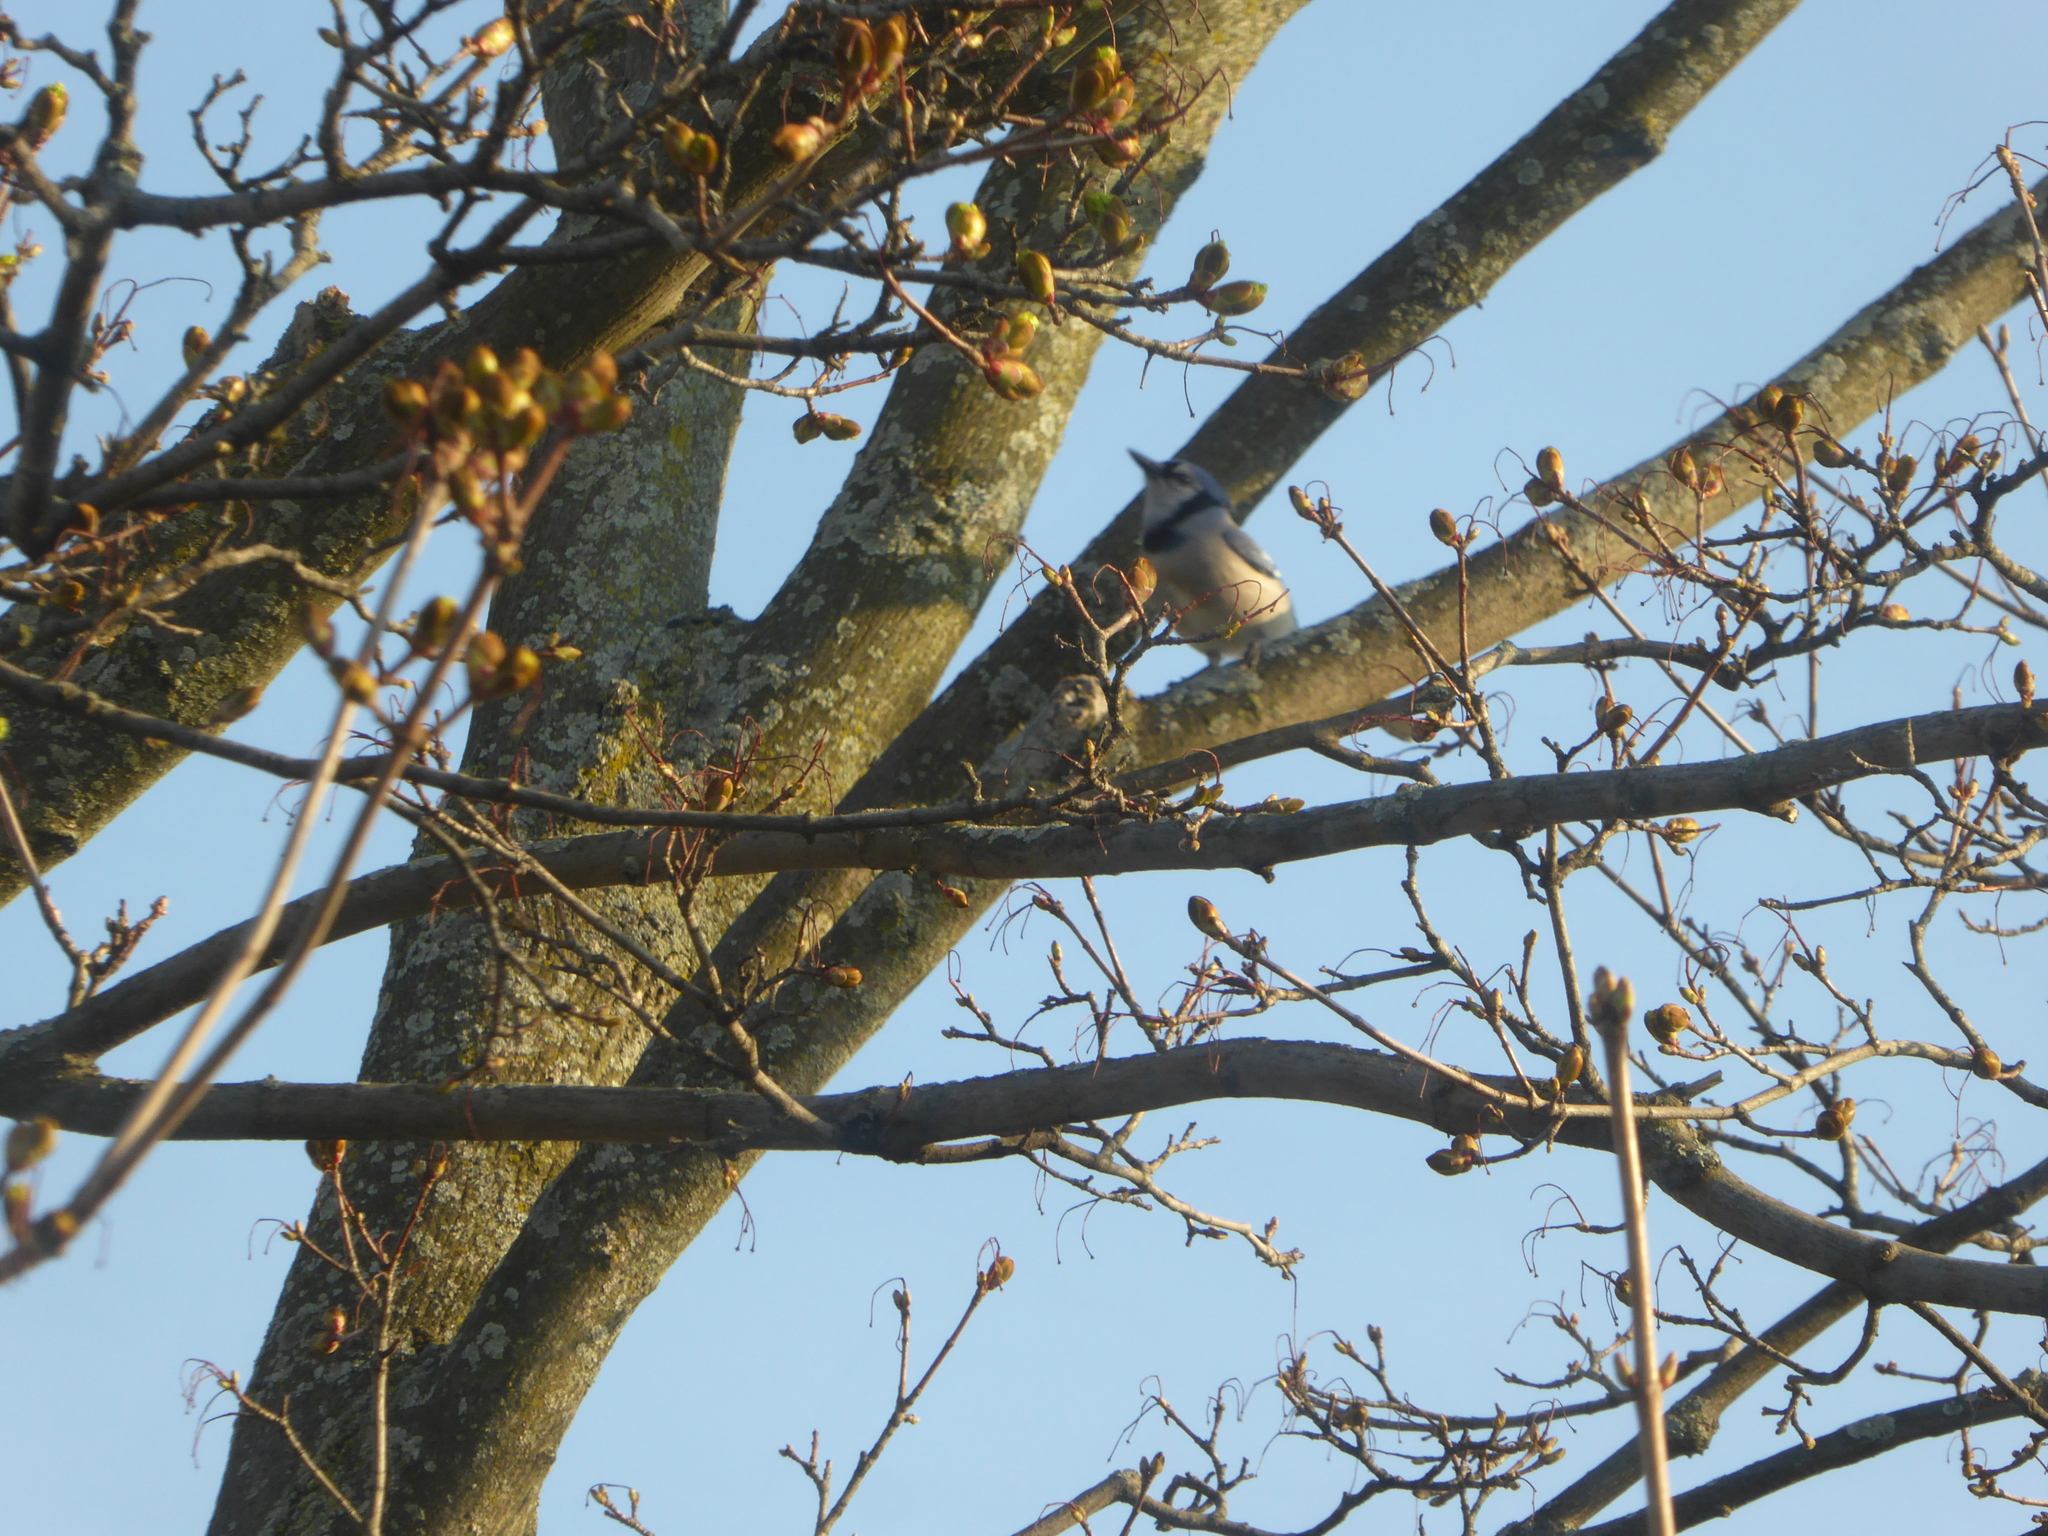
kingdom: Animalia
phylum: Chordata
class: Aves
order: Passeriformes
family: Corvidae
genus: Cyanocitta
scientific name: Cyanocitta cristata
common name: Blue jay
